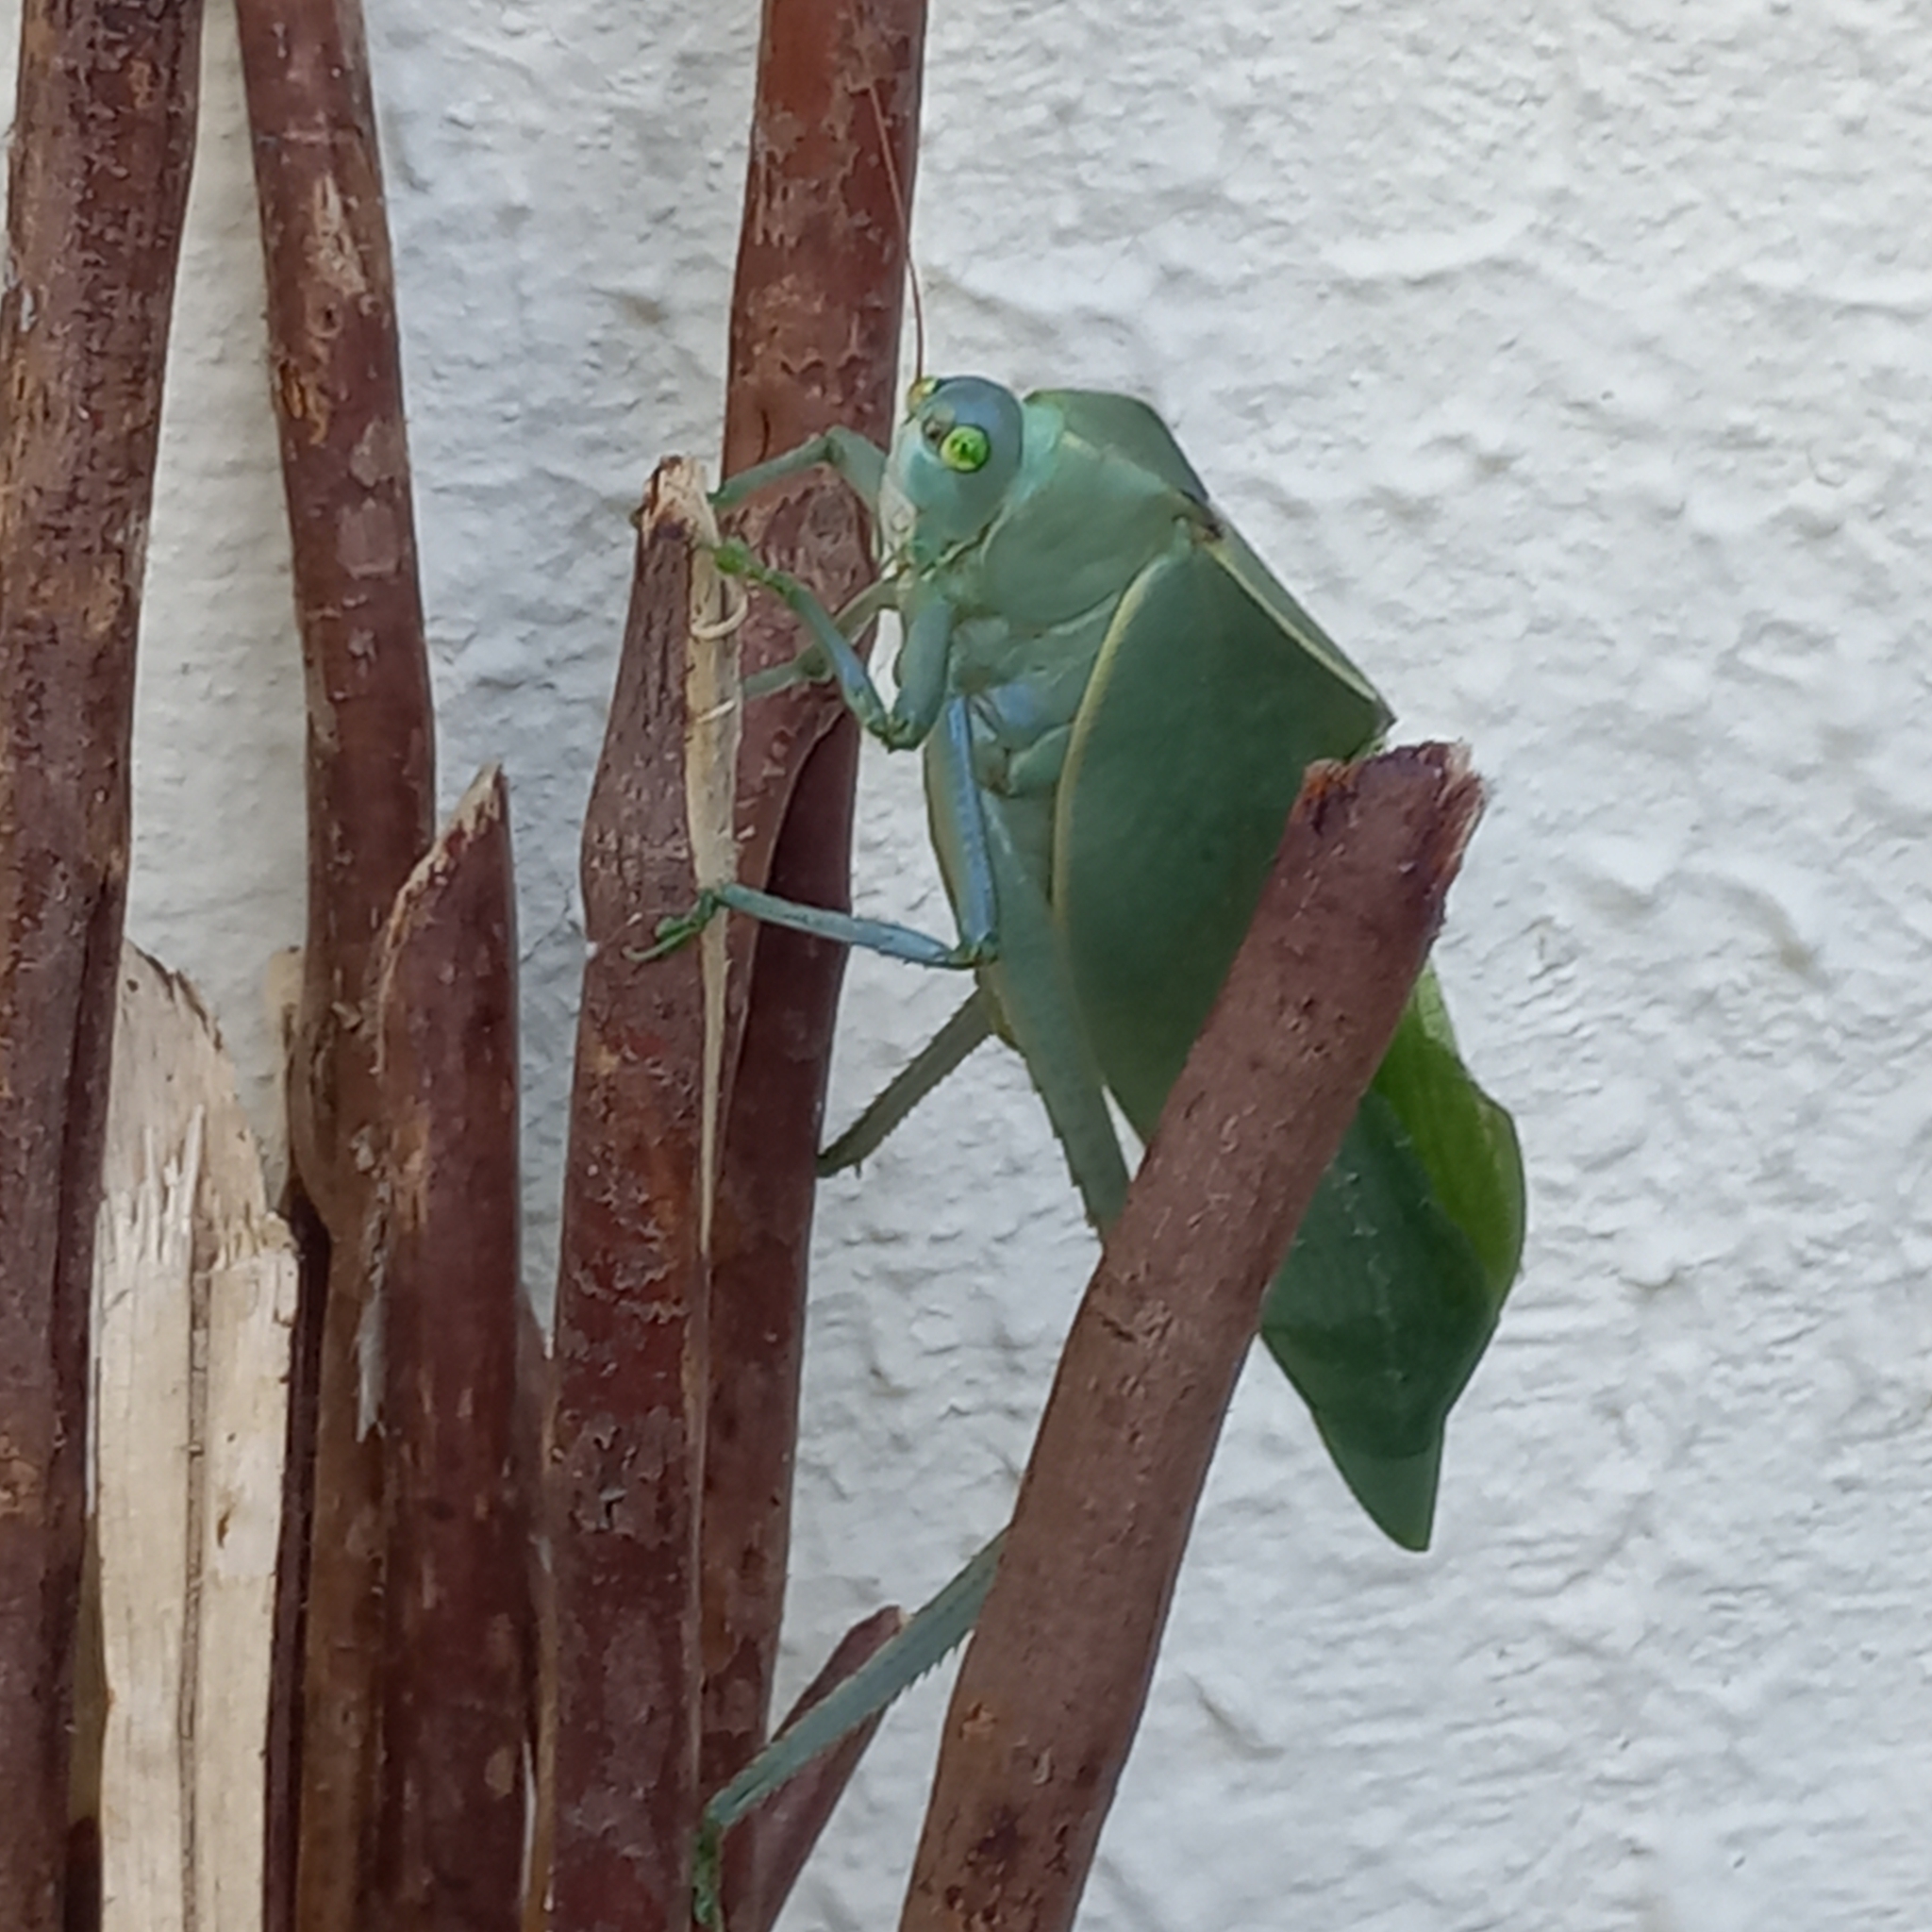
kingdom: Animalia
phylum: Arthropoda
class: Insecta
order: Orthoptera
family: Tettigoniidae
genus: Stilpnochlora
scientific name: Stilpnochlora azteca
